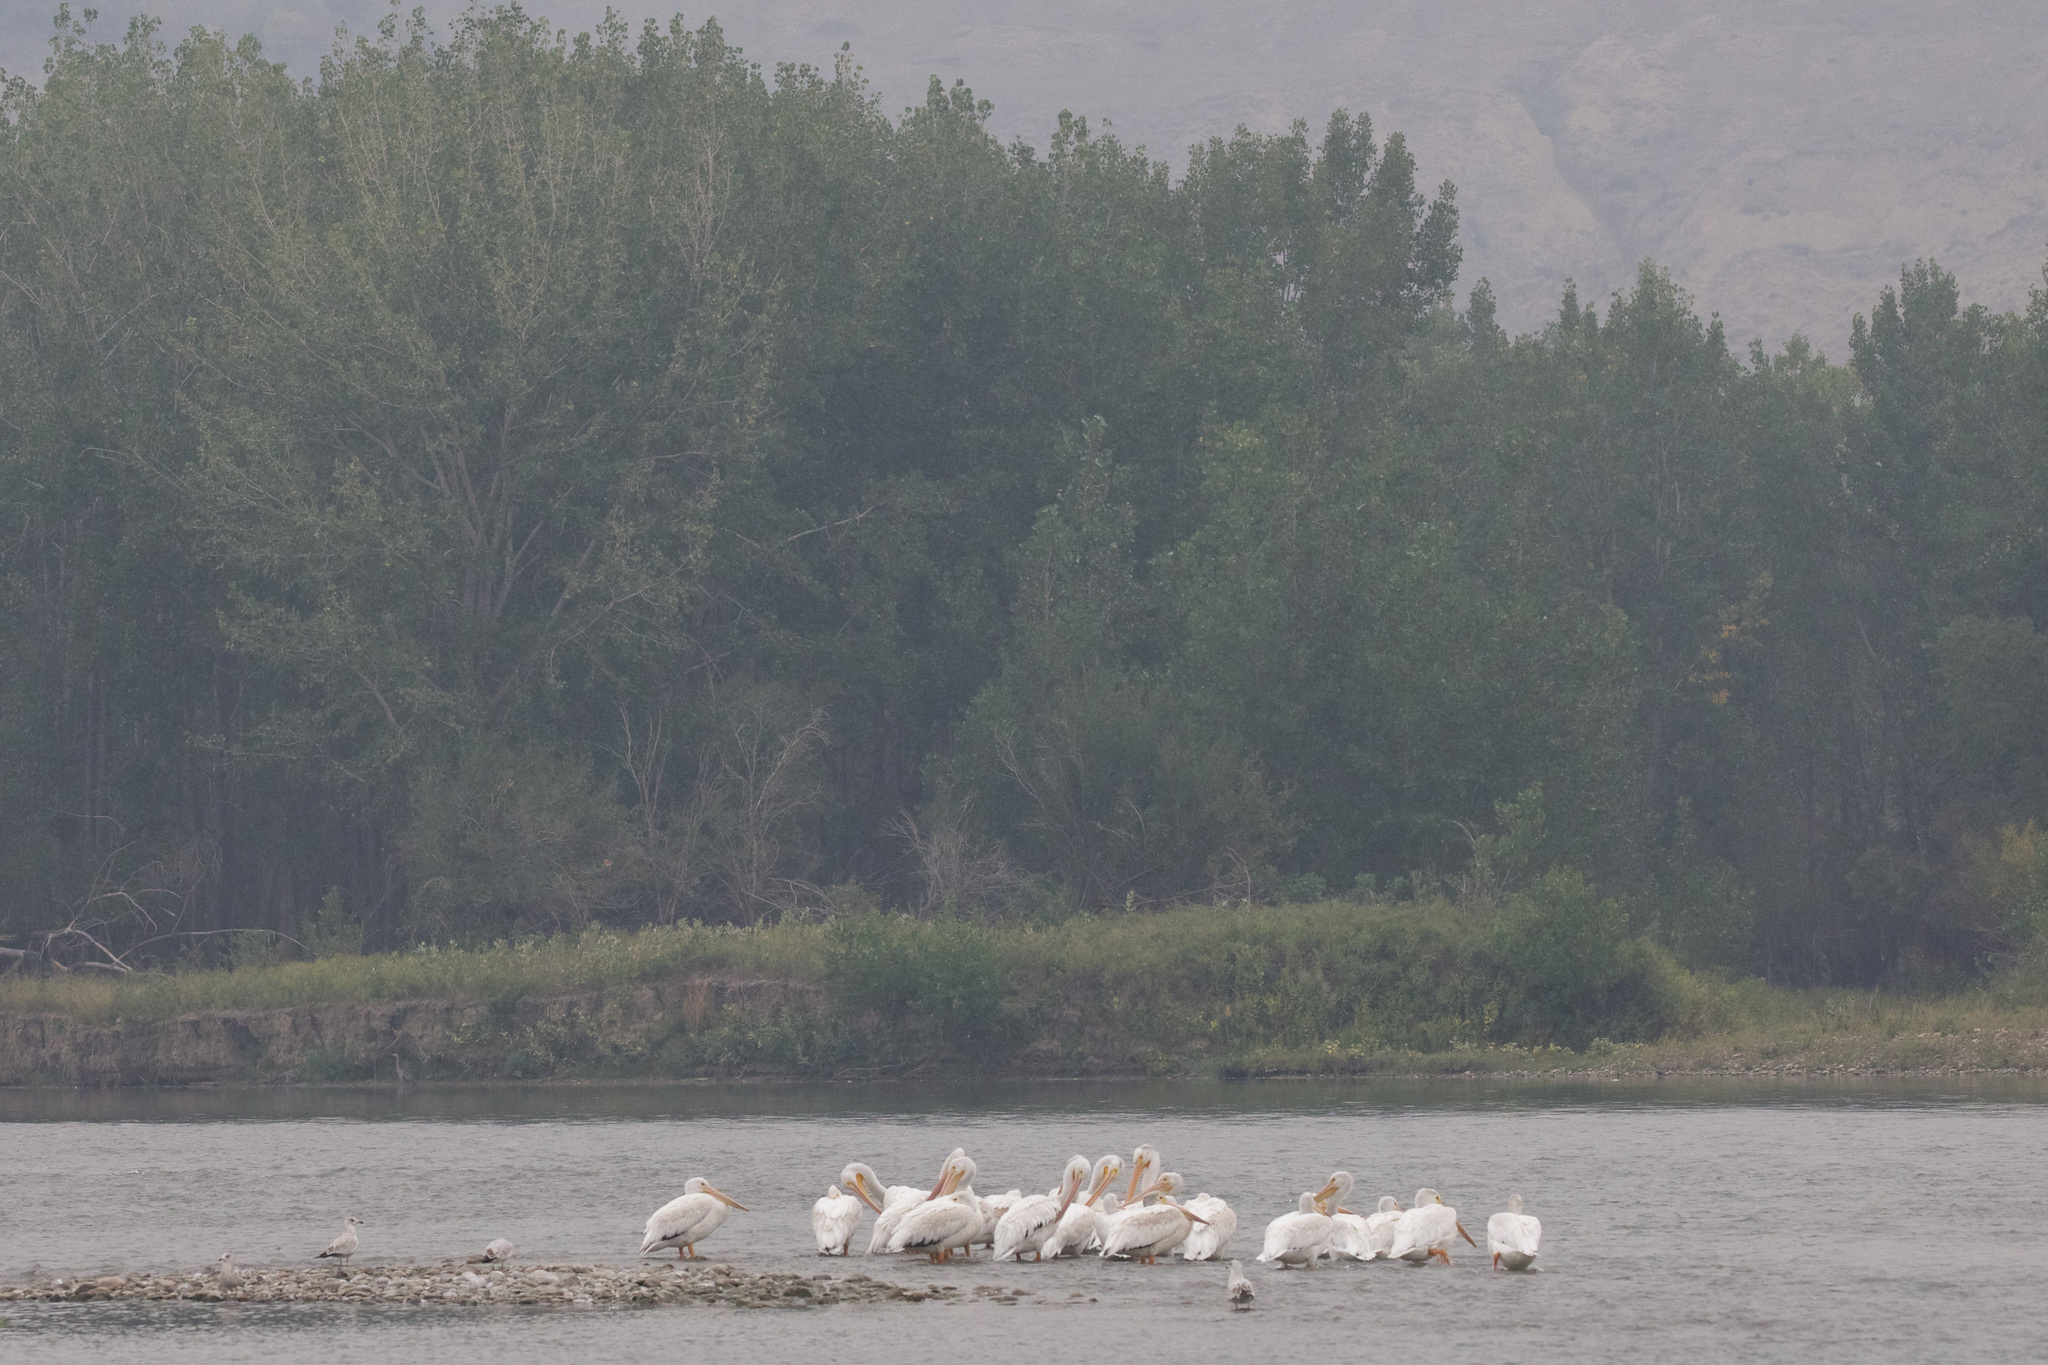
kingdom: Animalia
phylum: Chordata
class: Aves
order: Pelecaniformes
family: Pelecanidae
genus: Pelecanus
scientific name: Pelecanus erythrorhynchos
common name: American white pelican
